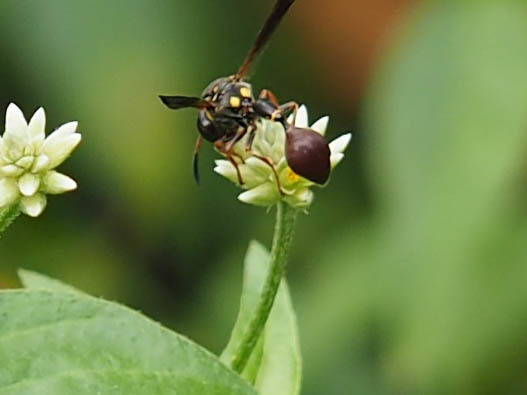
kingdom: Animalia
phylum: Arthropoda
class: Insecta
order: Hymenoptera
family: Eumenidae
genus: Zethus
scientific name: Zethus slossonae
